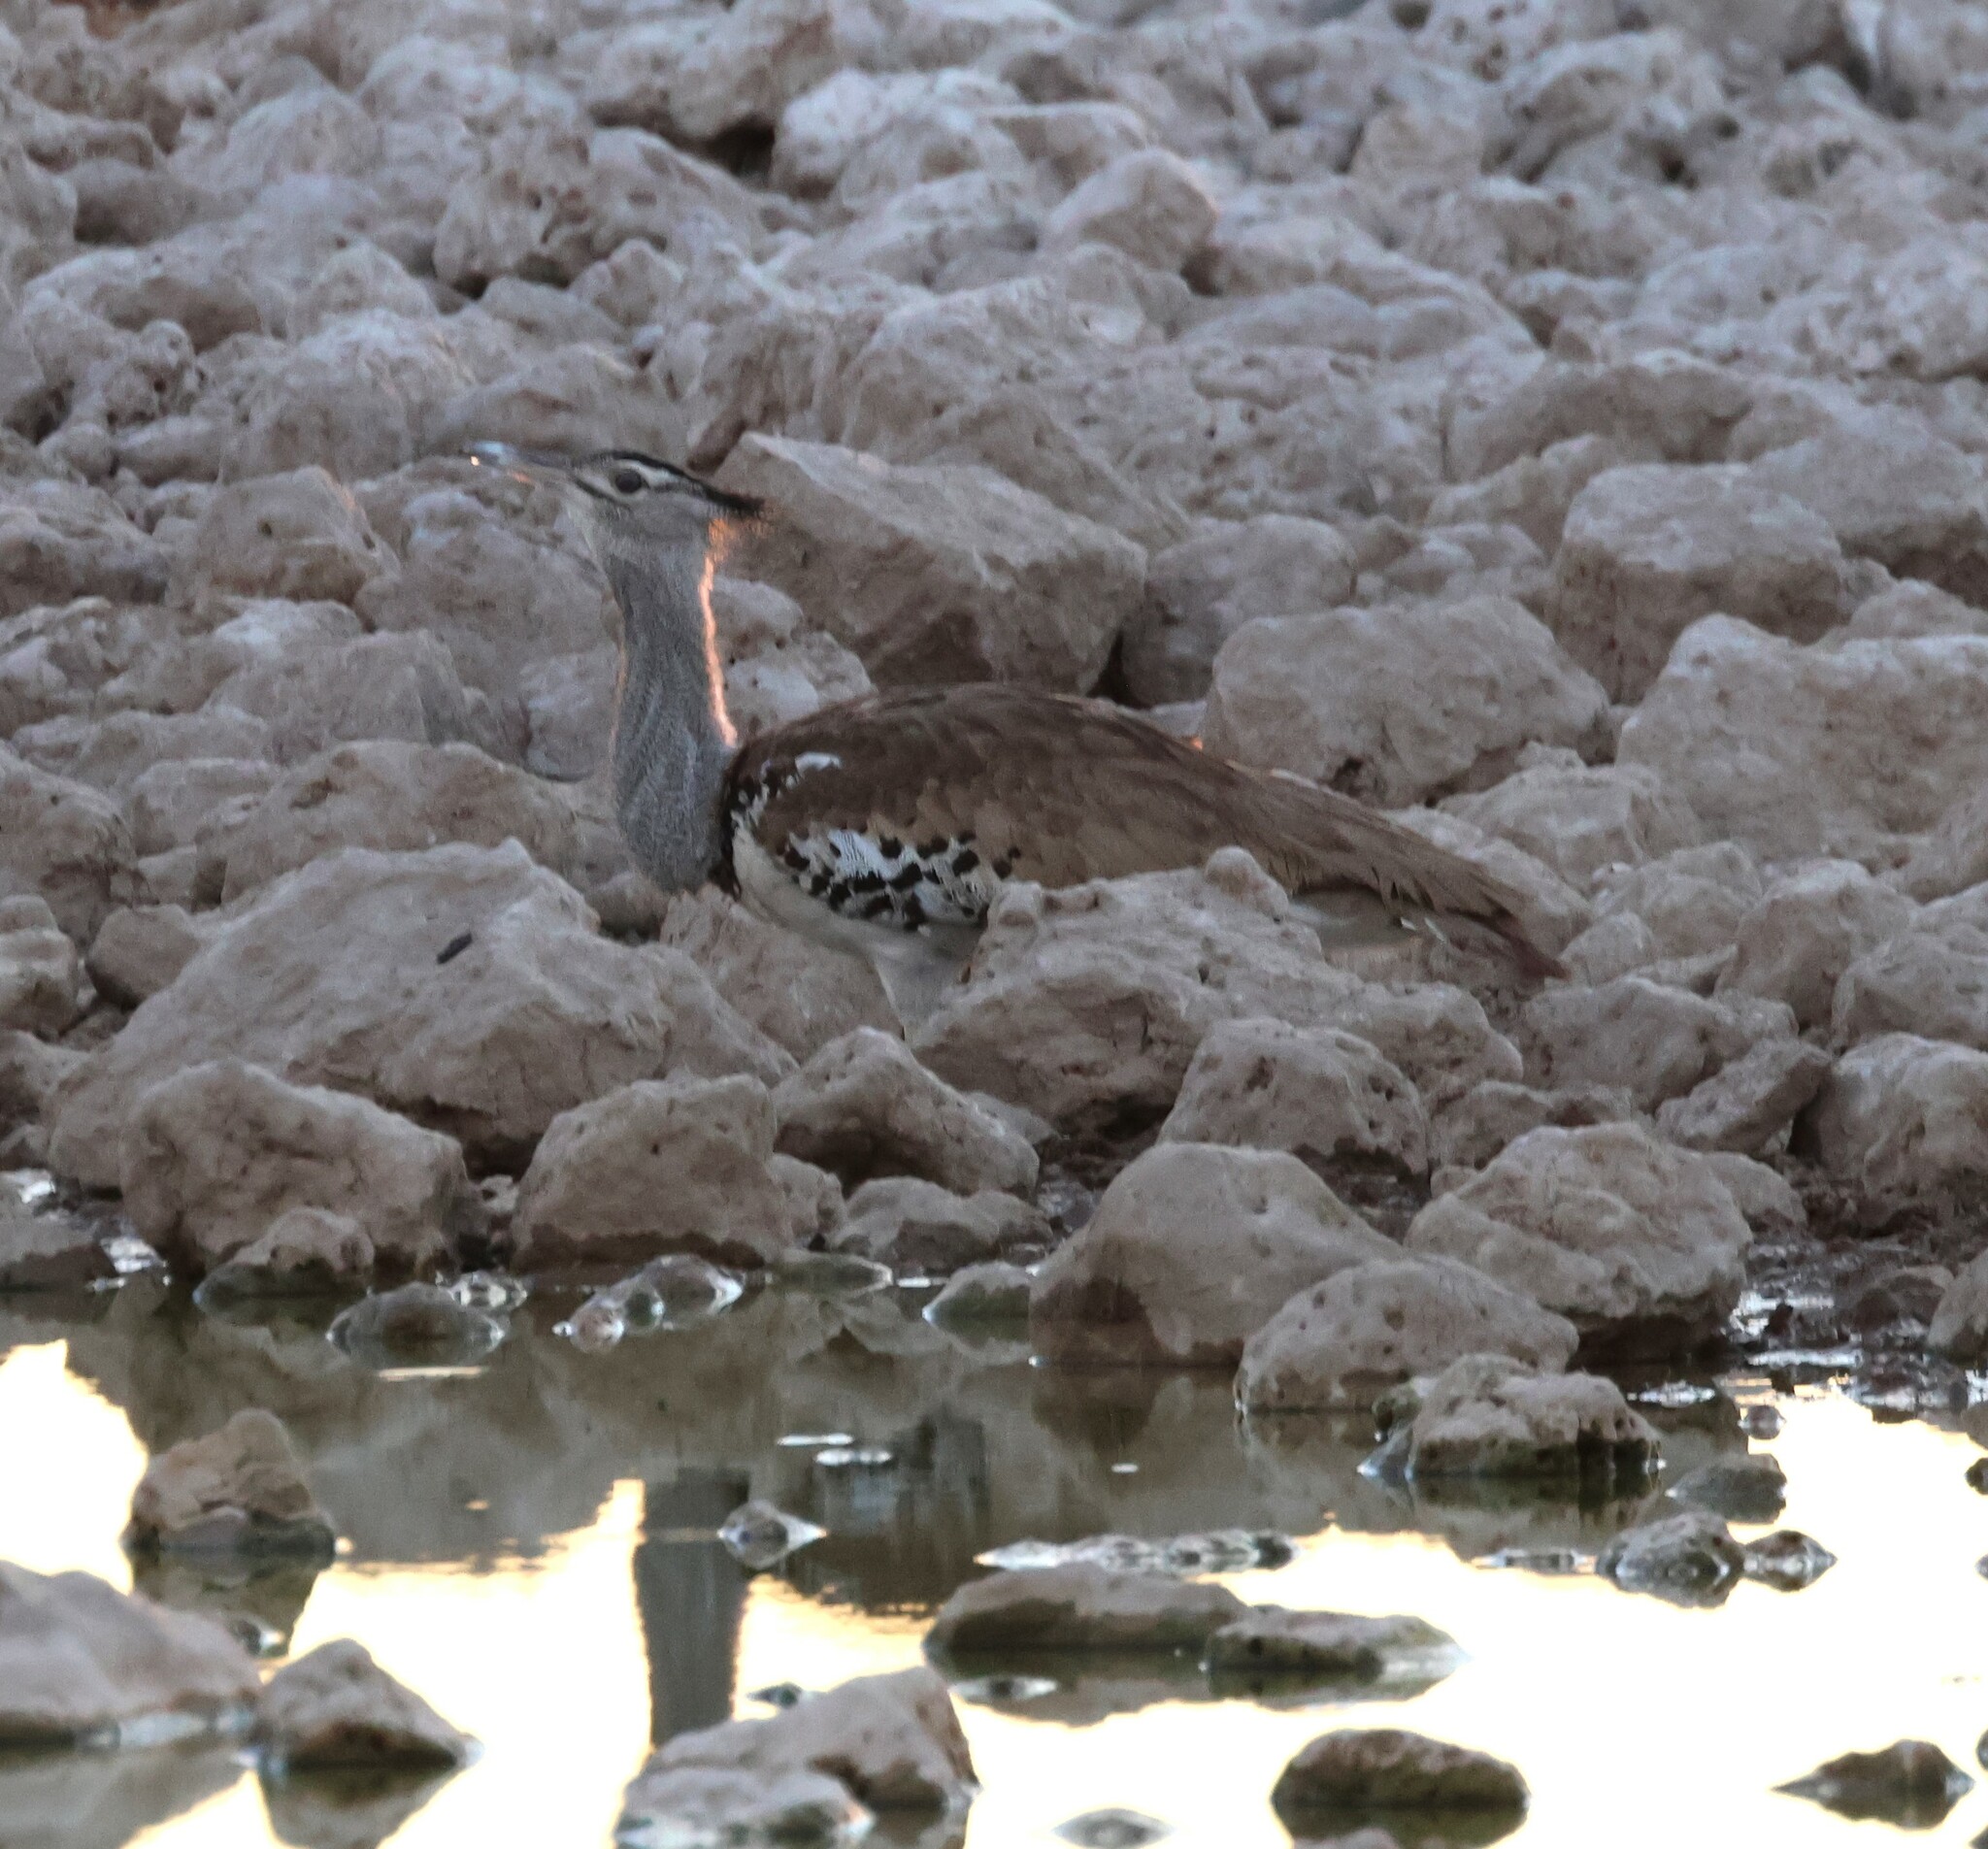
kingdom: Animalia
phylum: Chordata
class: Aves
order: Otidiformes
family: Otididae
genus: Ardeotis
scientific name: Ardeotis kori
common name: Kori bustard
